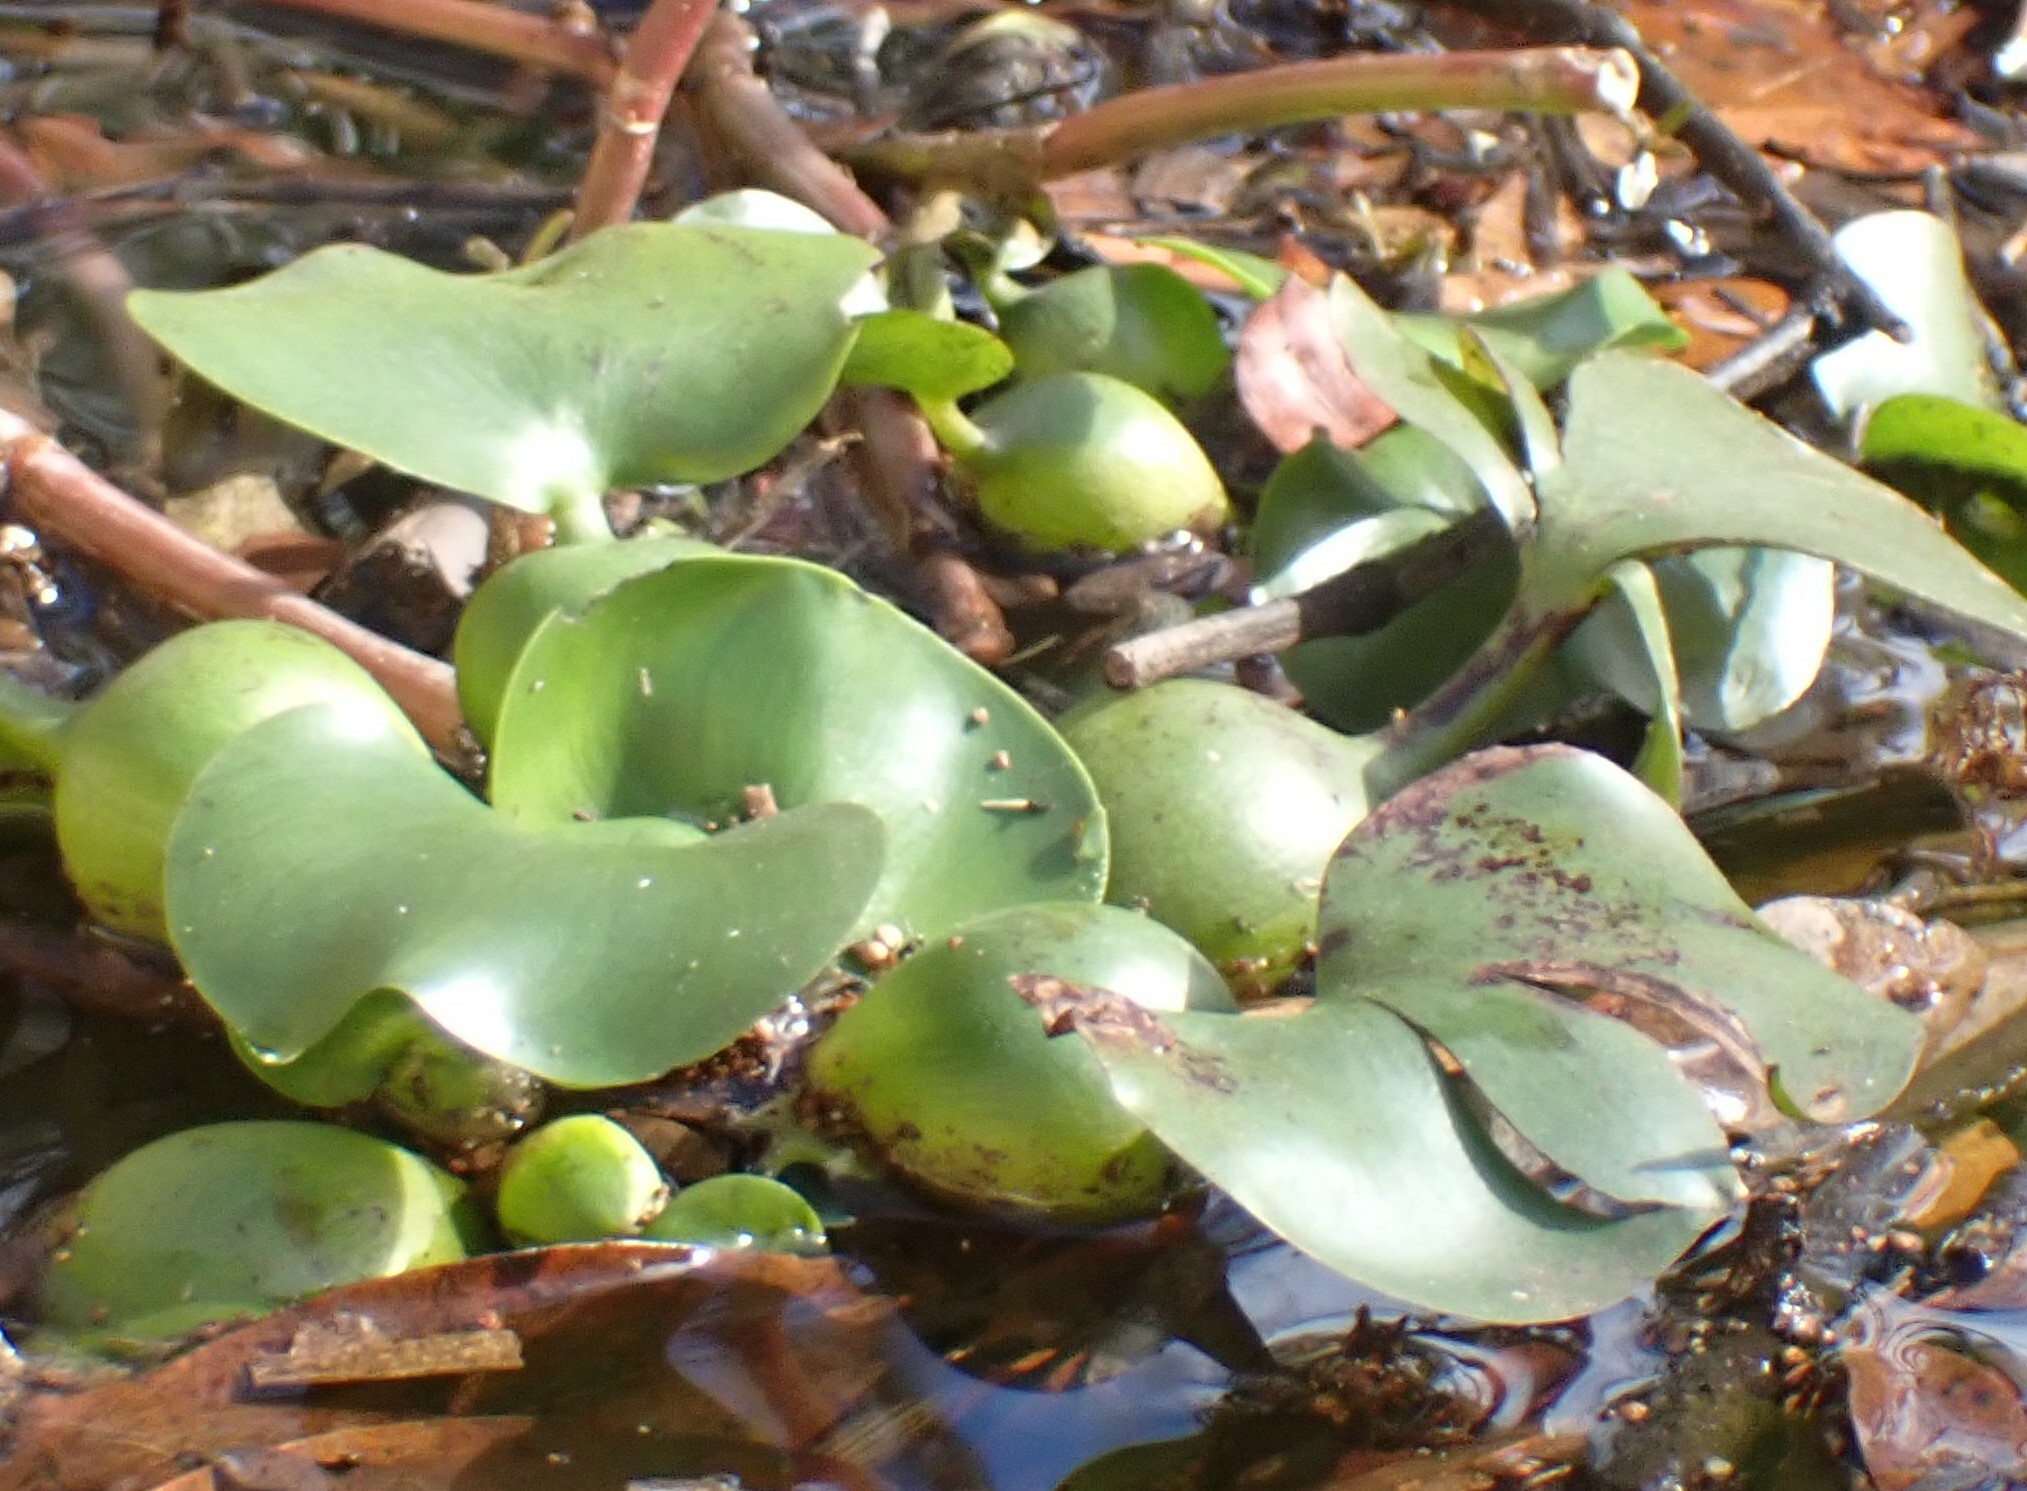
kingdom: Plantae
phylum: Tracheophyta
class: Liliopsida
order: Commelinales
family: Pontederiaceae
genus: Pontederia
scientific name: Pontederia crassipes
